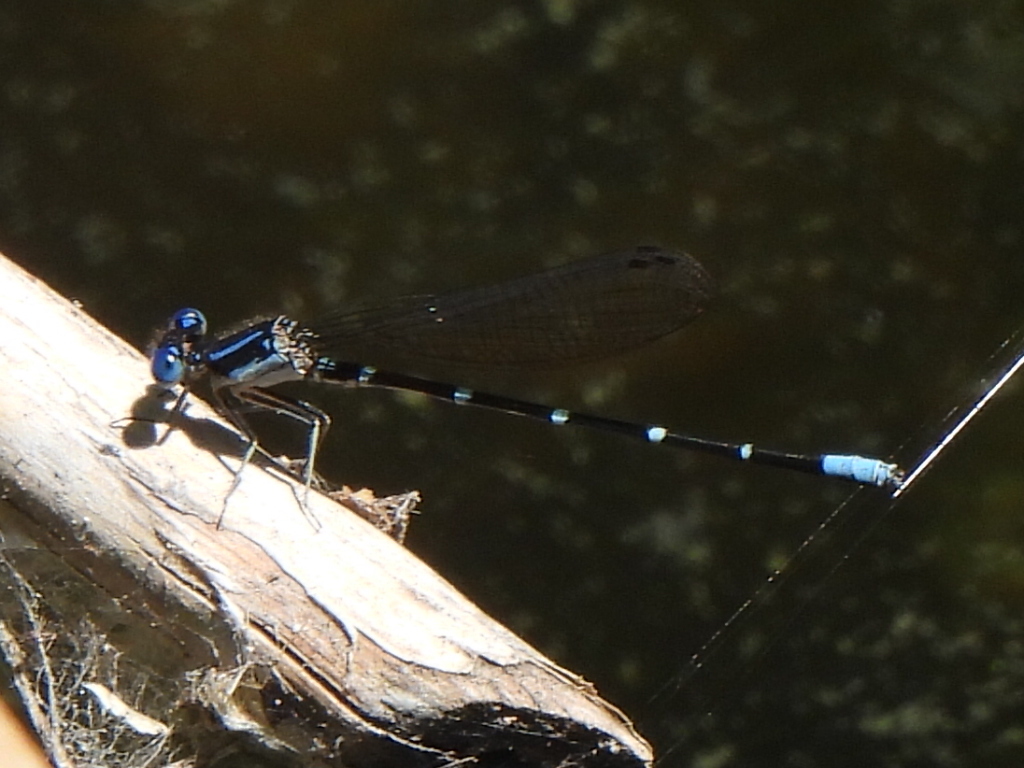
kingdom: Animalia
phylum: Arthropoda
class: Insecta
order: Odonata
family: Coenagrionidae
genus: Argia
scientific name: Argia sedula
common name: Blue-ringed dancer
